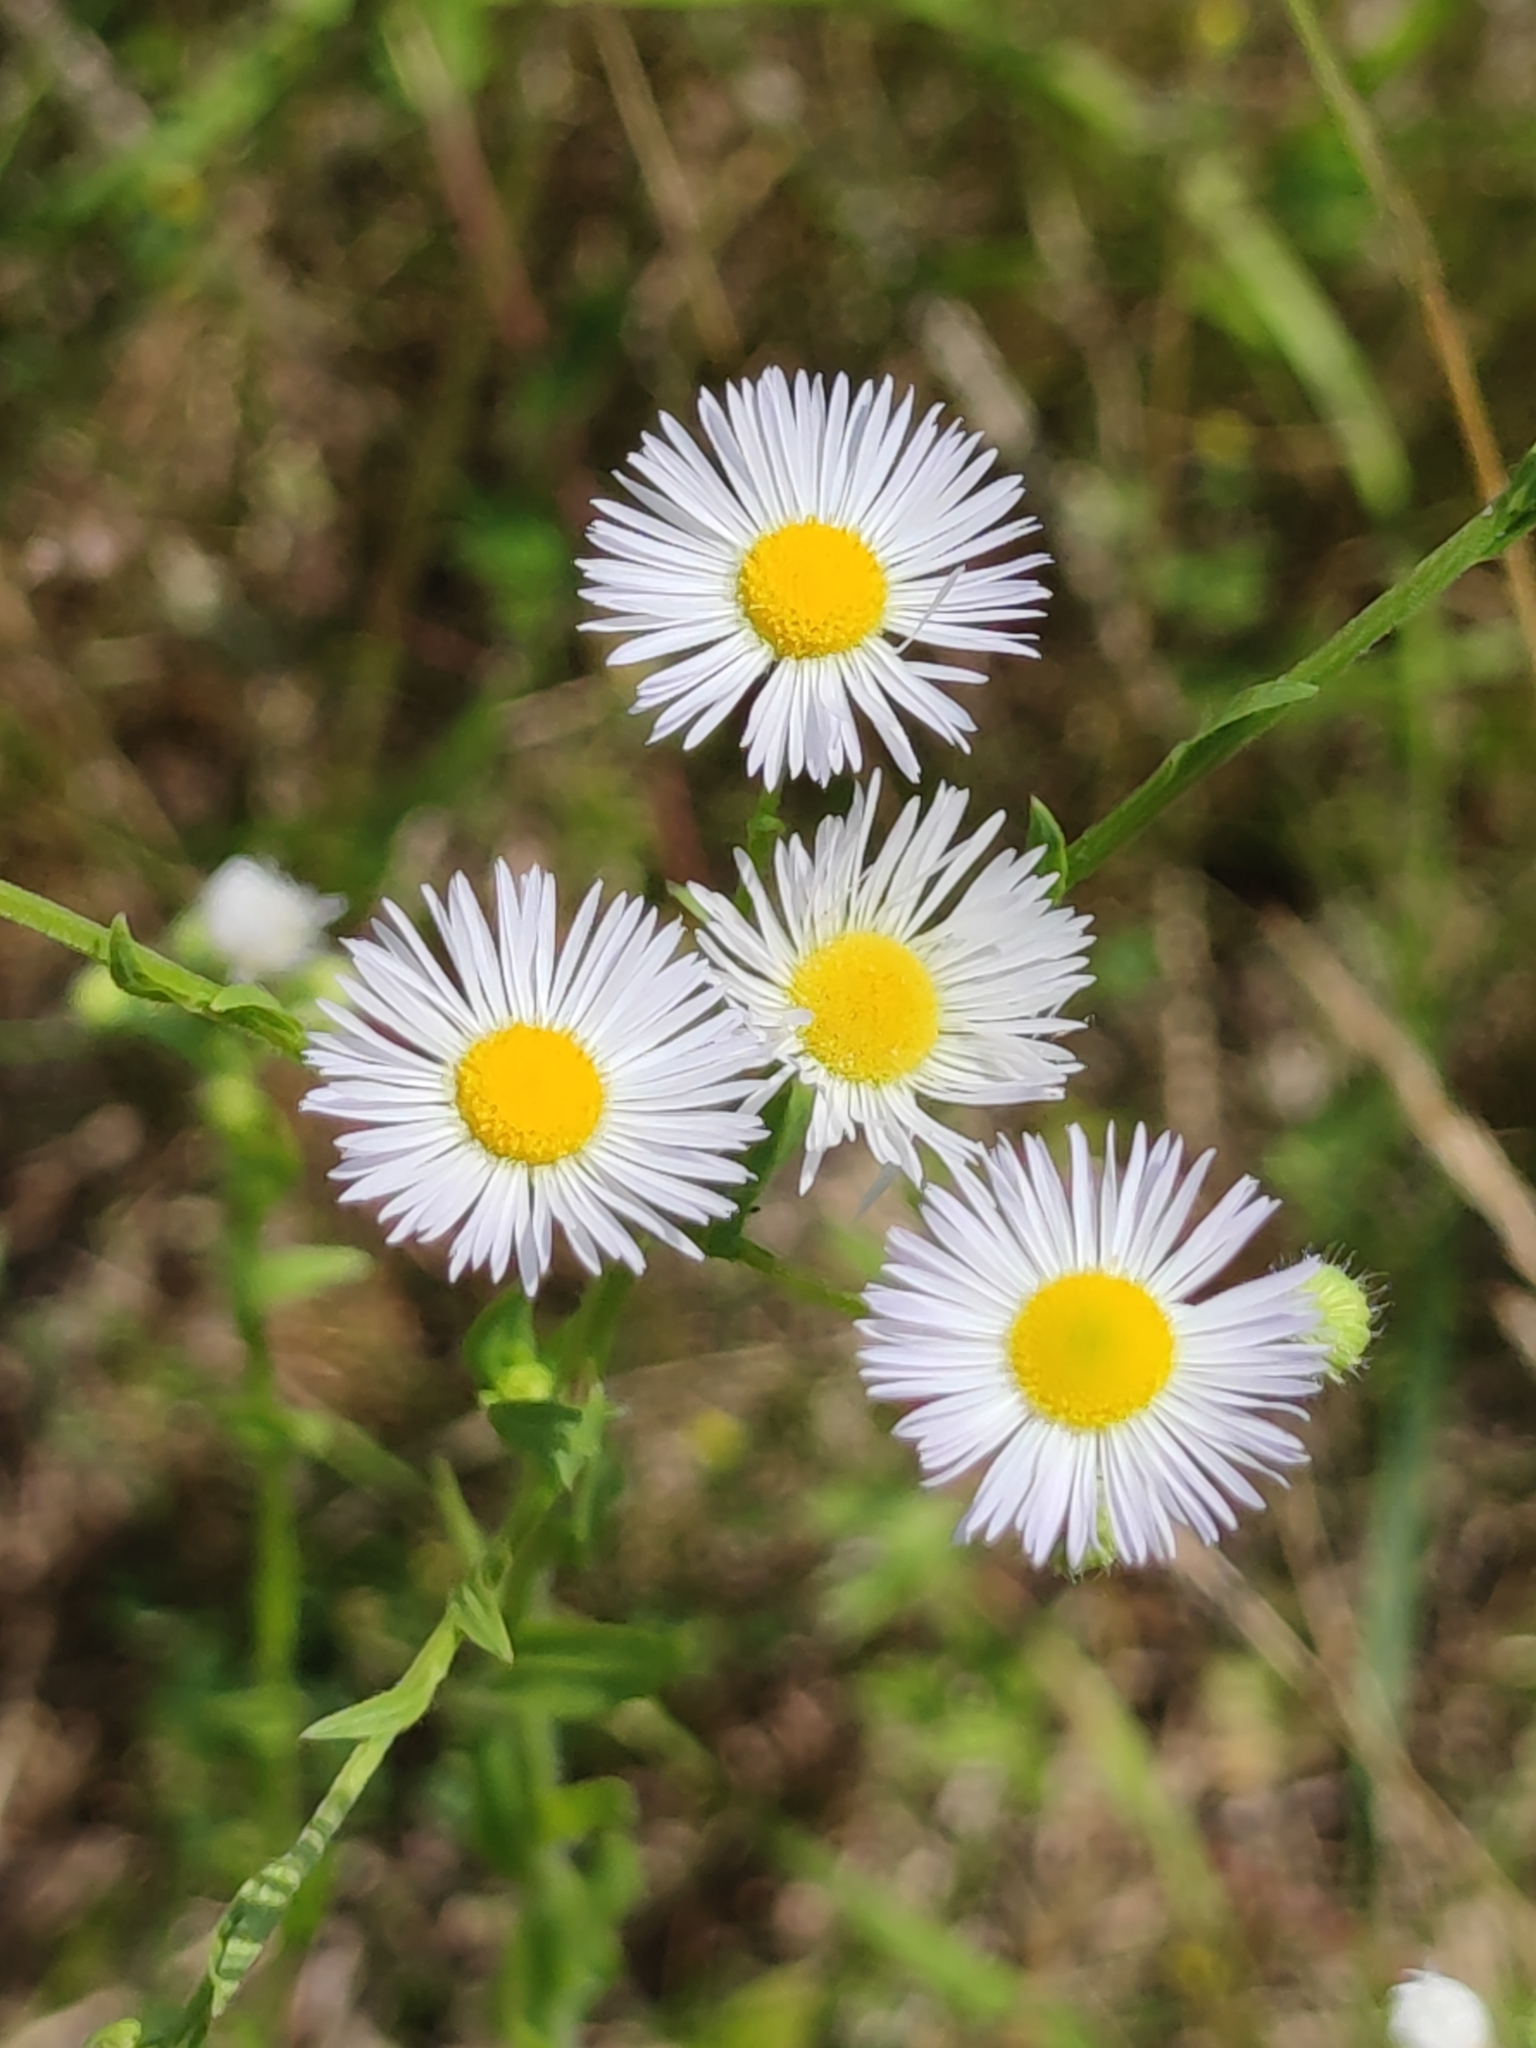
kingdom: Plantae
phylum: Tracheophyta
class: Magnoliopsida
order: Asterales
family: Asteraceae
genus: Erigeron
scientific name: Erigeron annuus
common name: Tall fleabane
